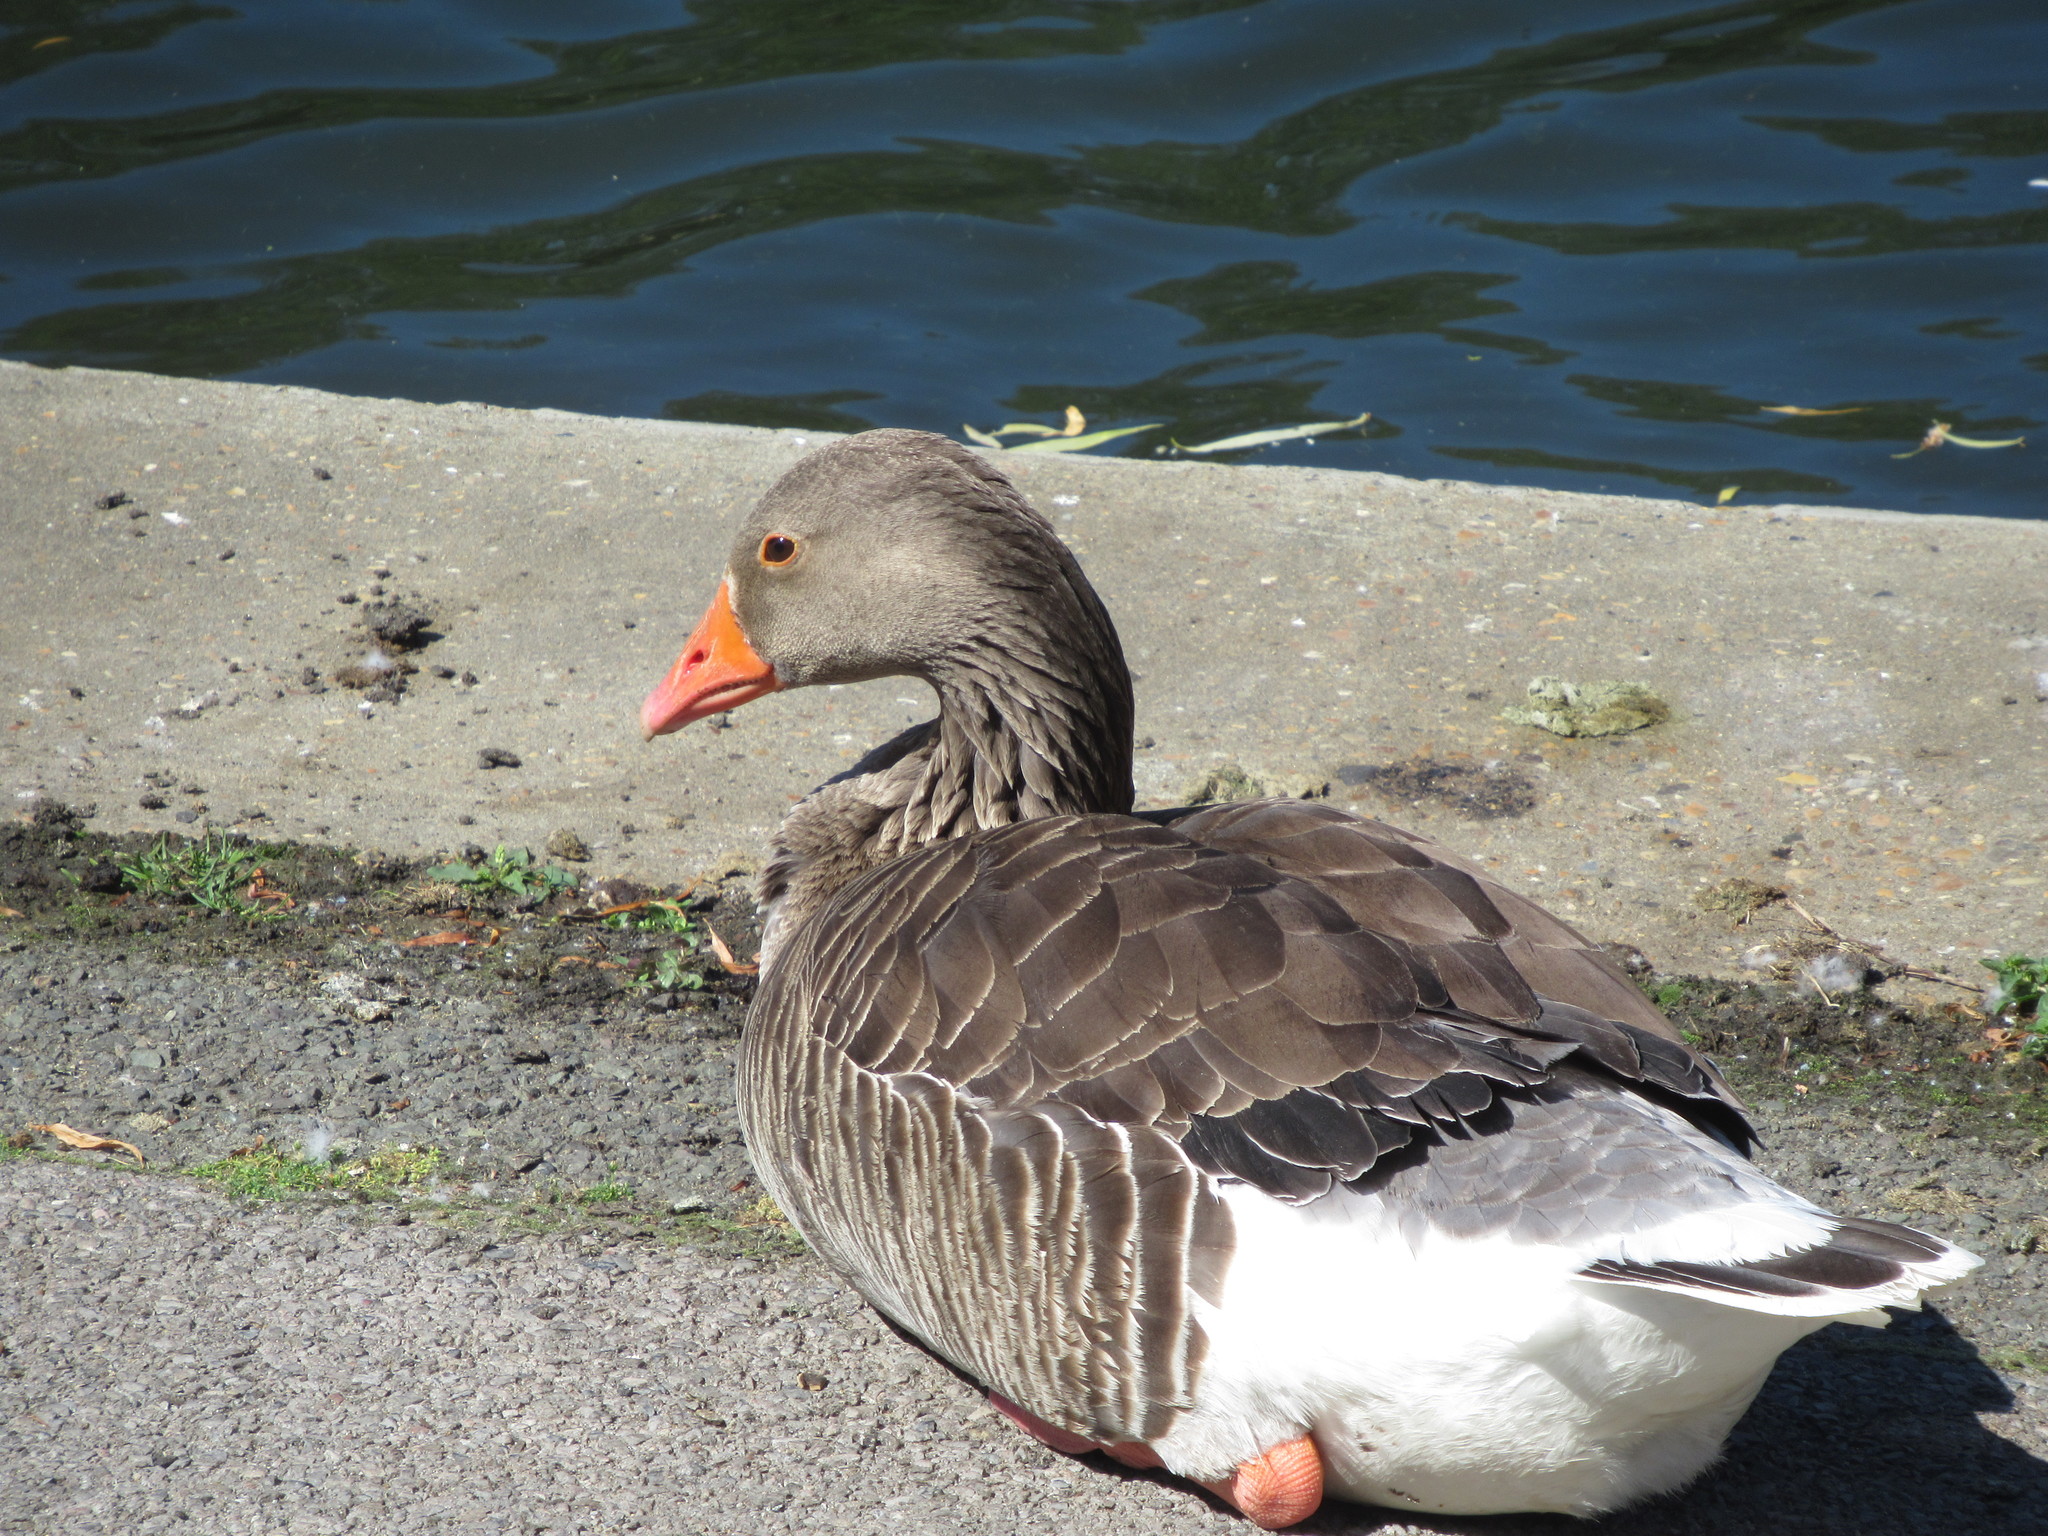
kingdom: Animalia
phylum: Chordata
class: Aves
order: Anseriformes
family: Anatidae
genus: Anser
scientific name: Anser anser
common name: Greylag goose
